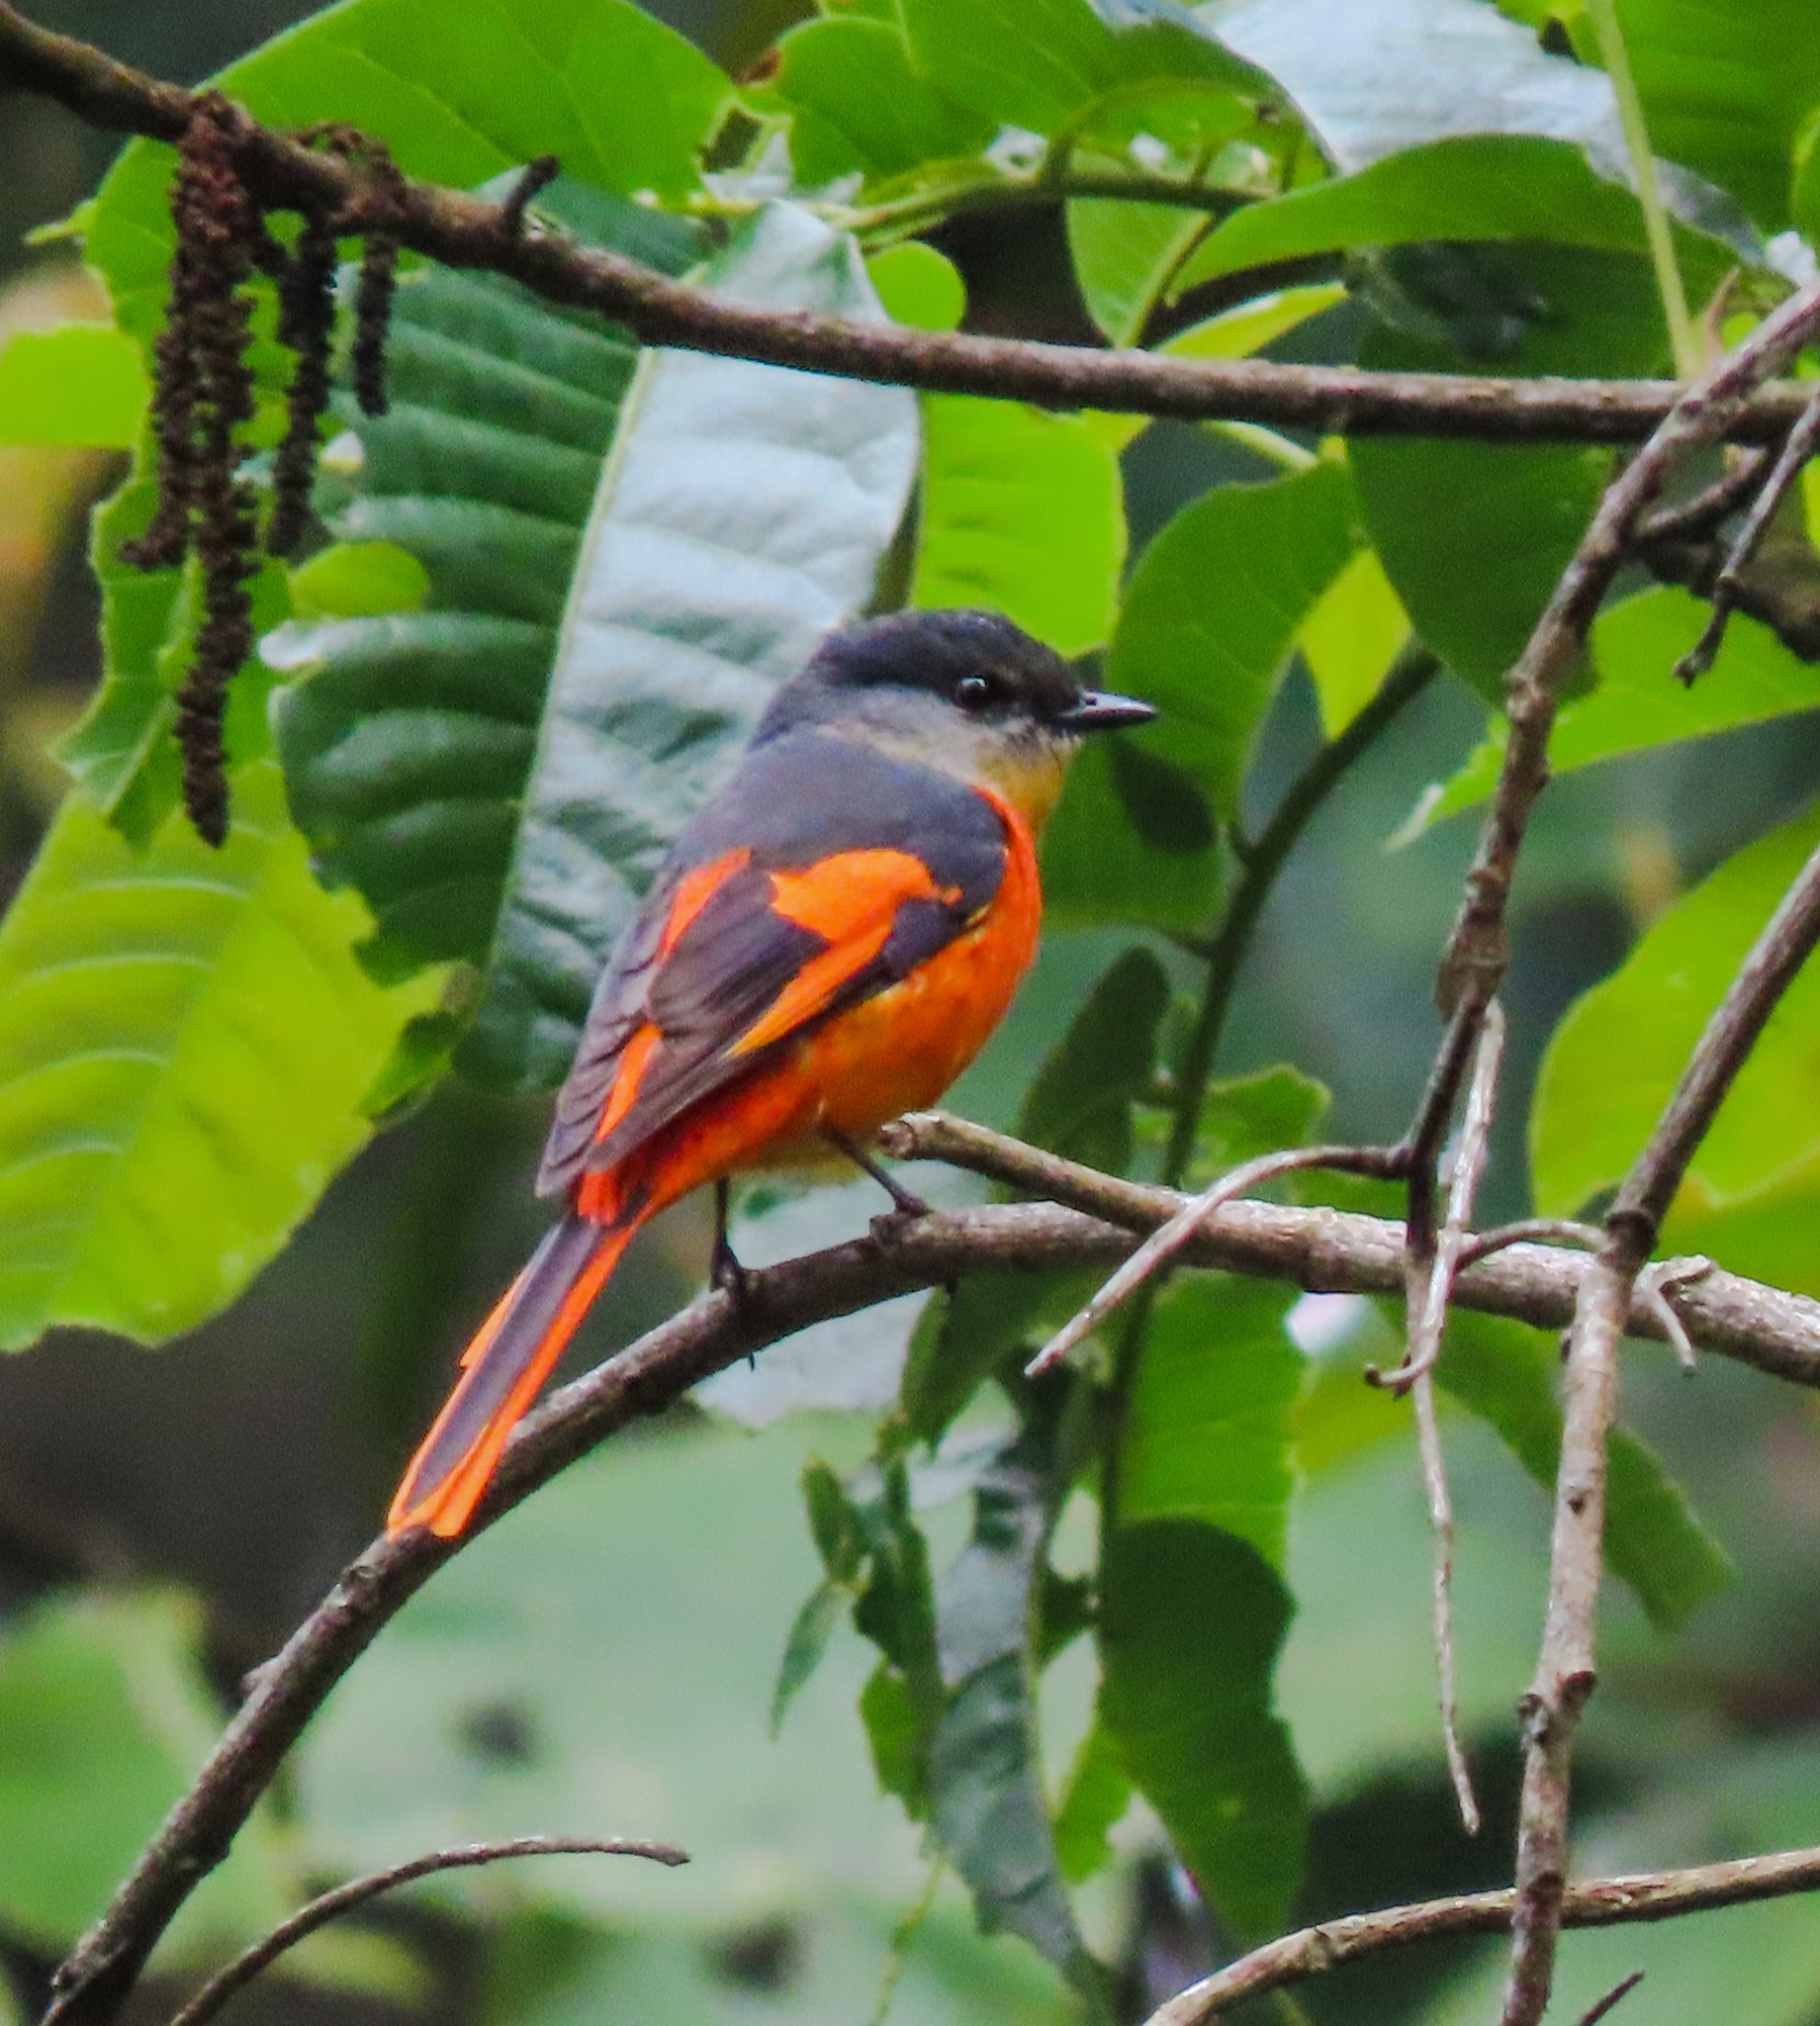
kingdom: Animalia
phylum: Chordata
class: Aves
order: Passeriformes
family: Campephagidae
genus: Pericrocotus
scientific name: Pericrocotus solaris
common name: Grey-chinned minivet
